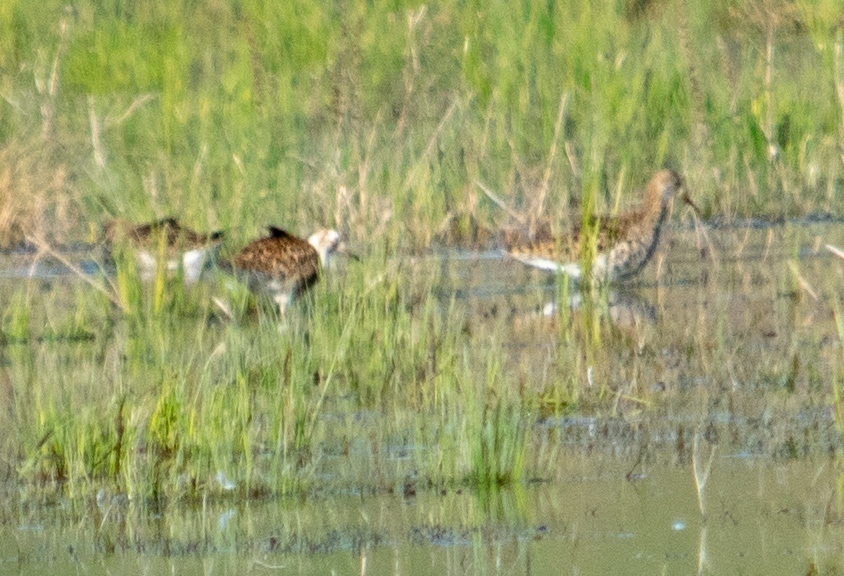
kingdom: Animalia
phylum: Chordata
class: Aves
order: Charadriiformes
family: Scolopacidae
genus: Calidris
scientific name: Calidris pugnax
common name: Ruff
